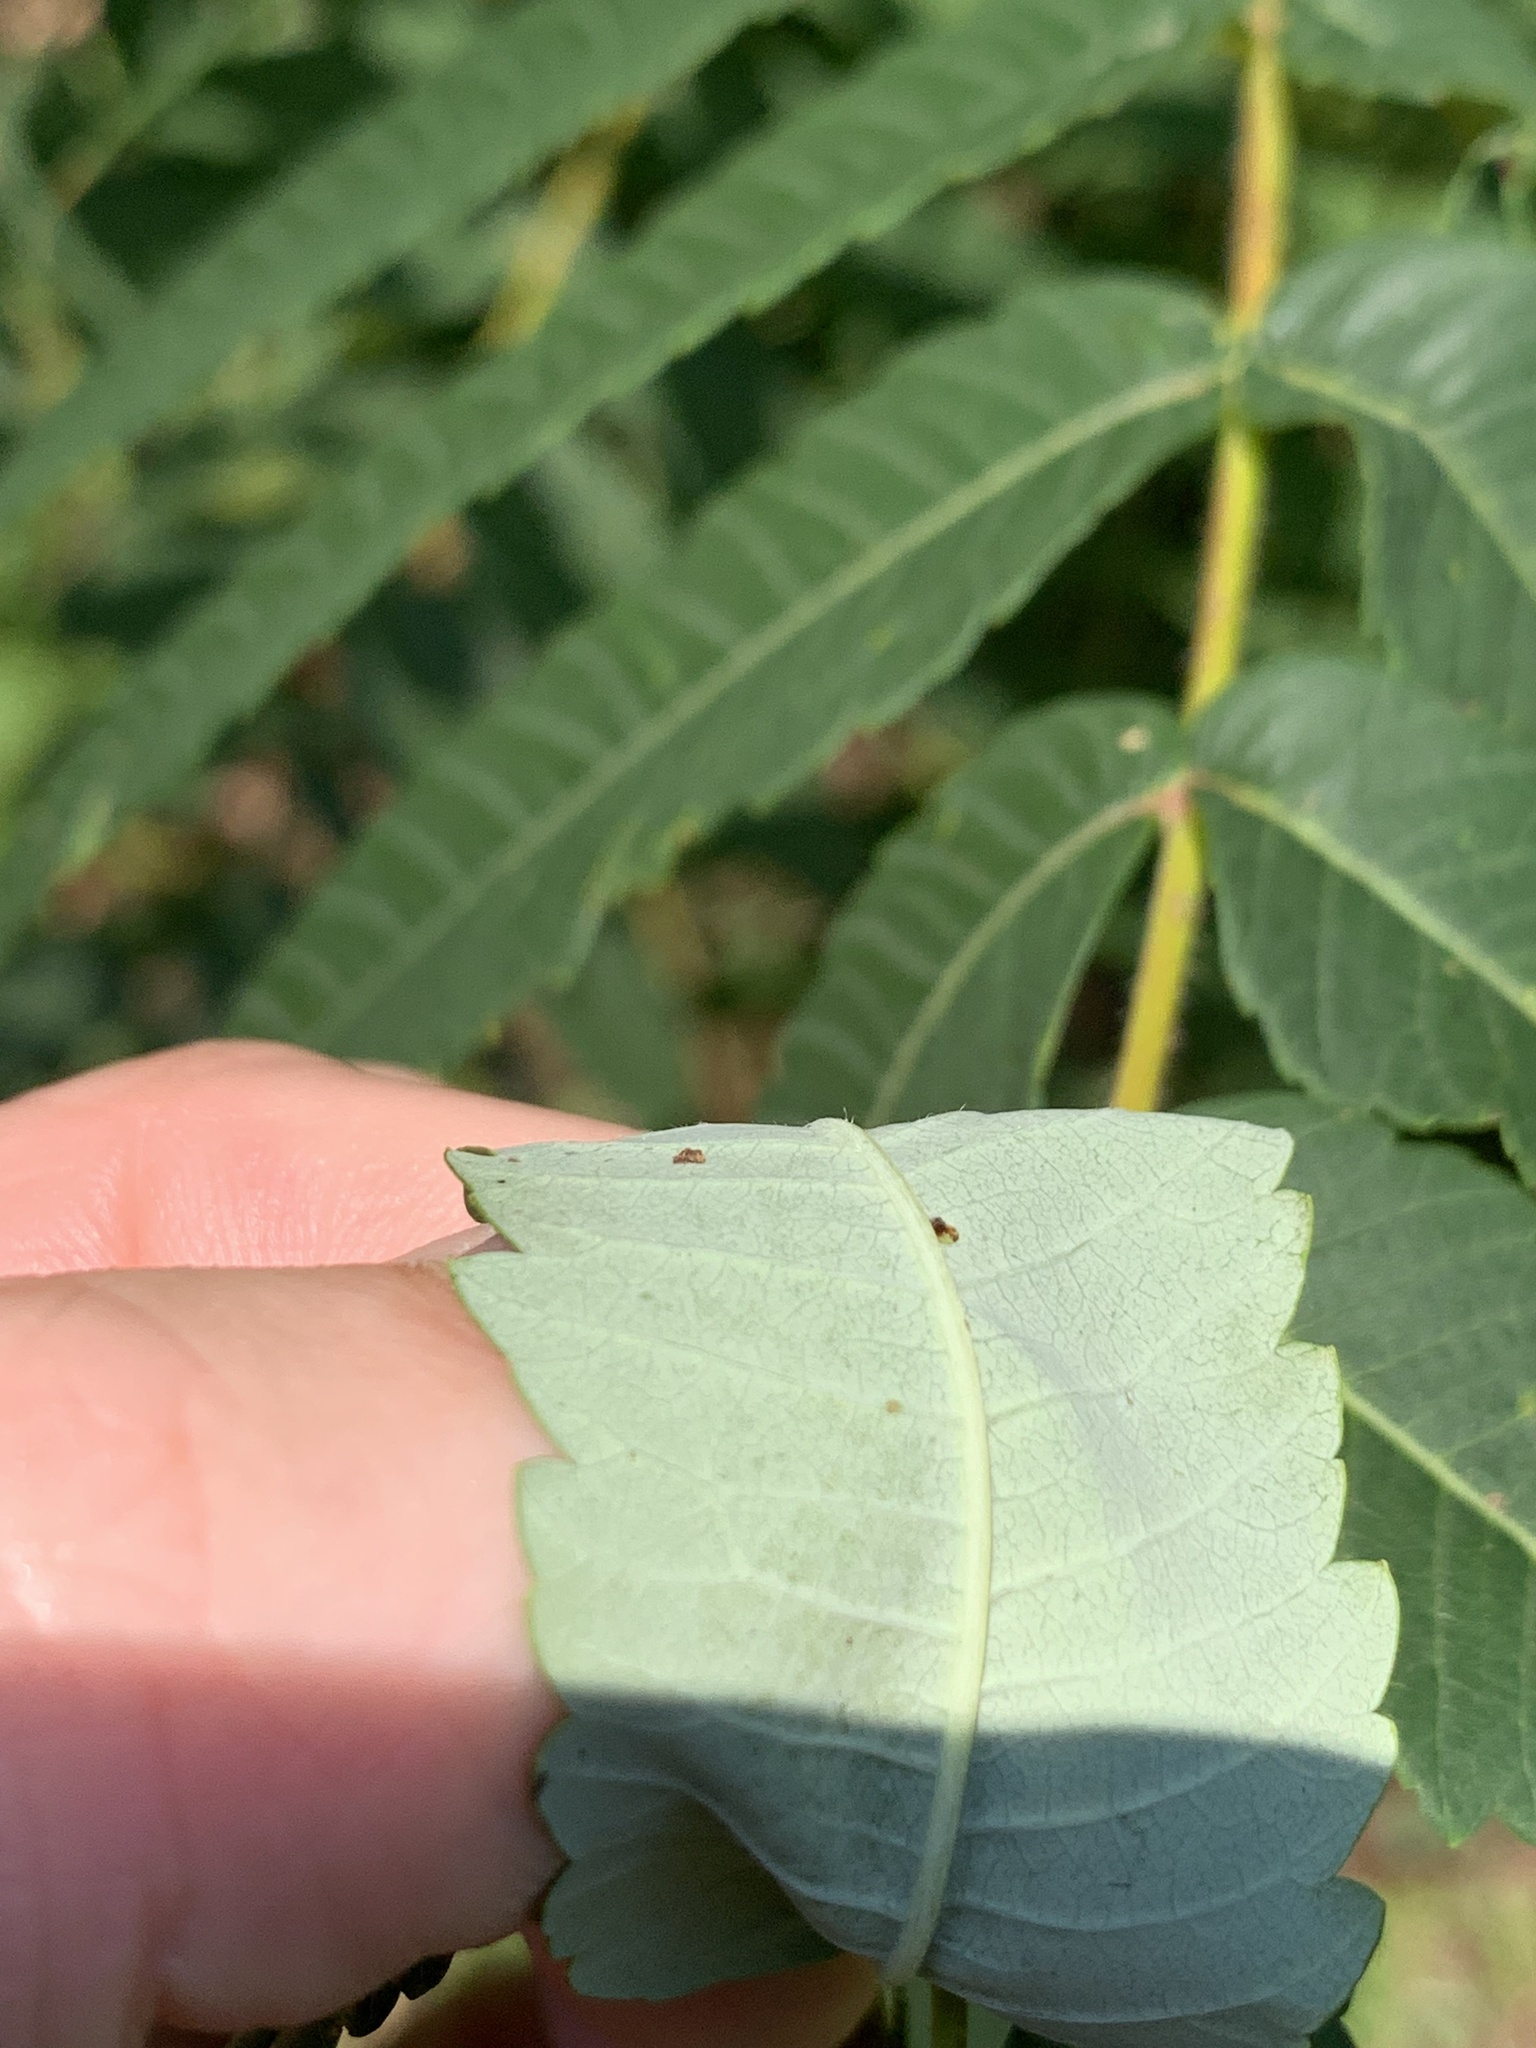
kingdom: Plantae
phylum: Tracheophyta
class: Magnoliopsida
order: Sapindales
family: Anacardiaceae
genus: Rhus
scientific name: Rhus typhina
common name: Staghorn sumac
